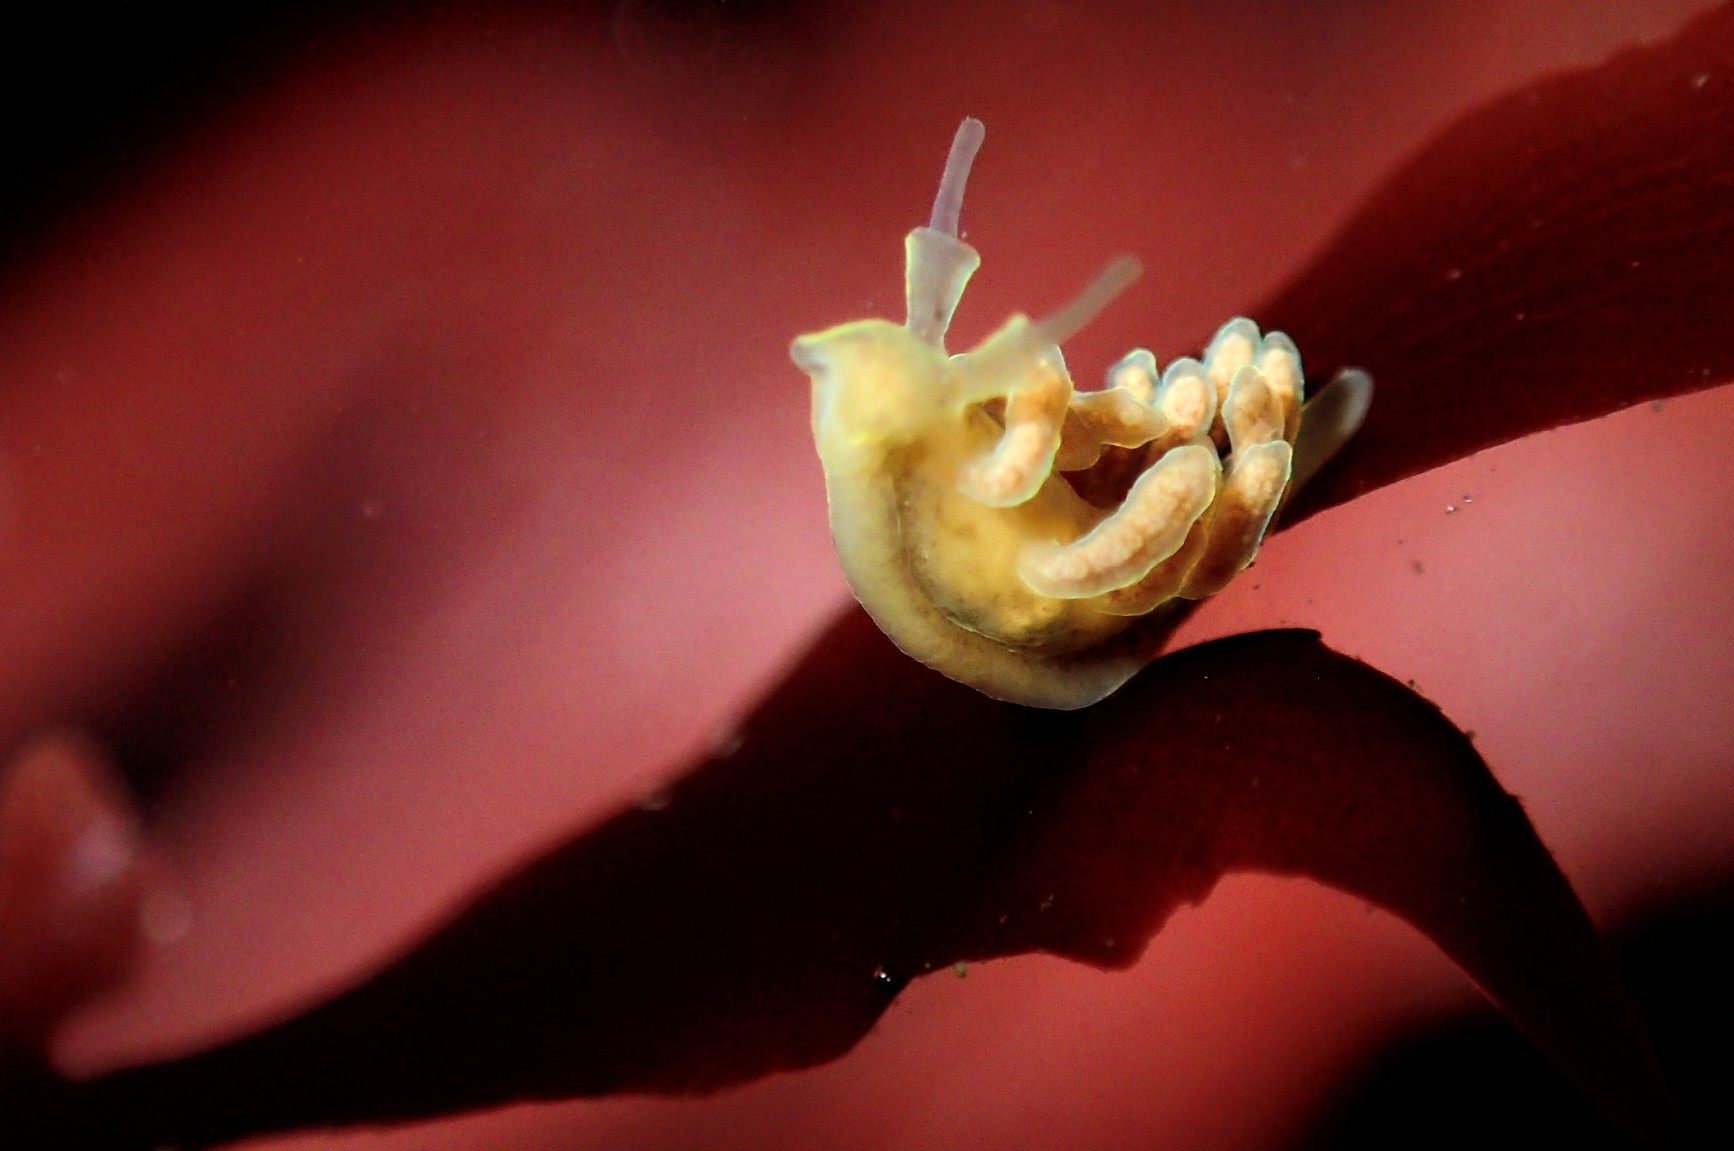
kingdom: Animalia
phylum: Mollusca
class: Gastropoda
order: Nudibranchia
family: Dotidae
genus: Doto
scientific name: Doto columbiana
